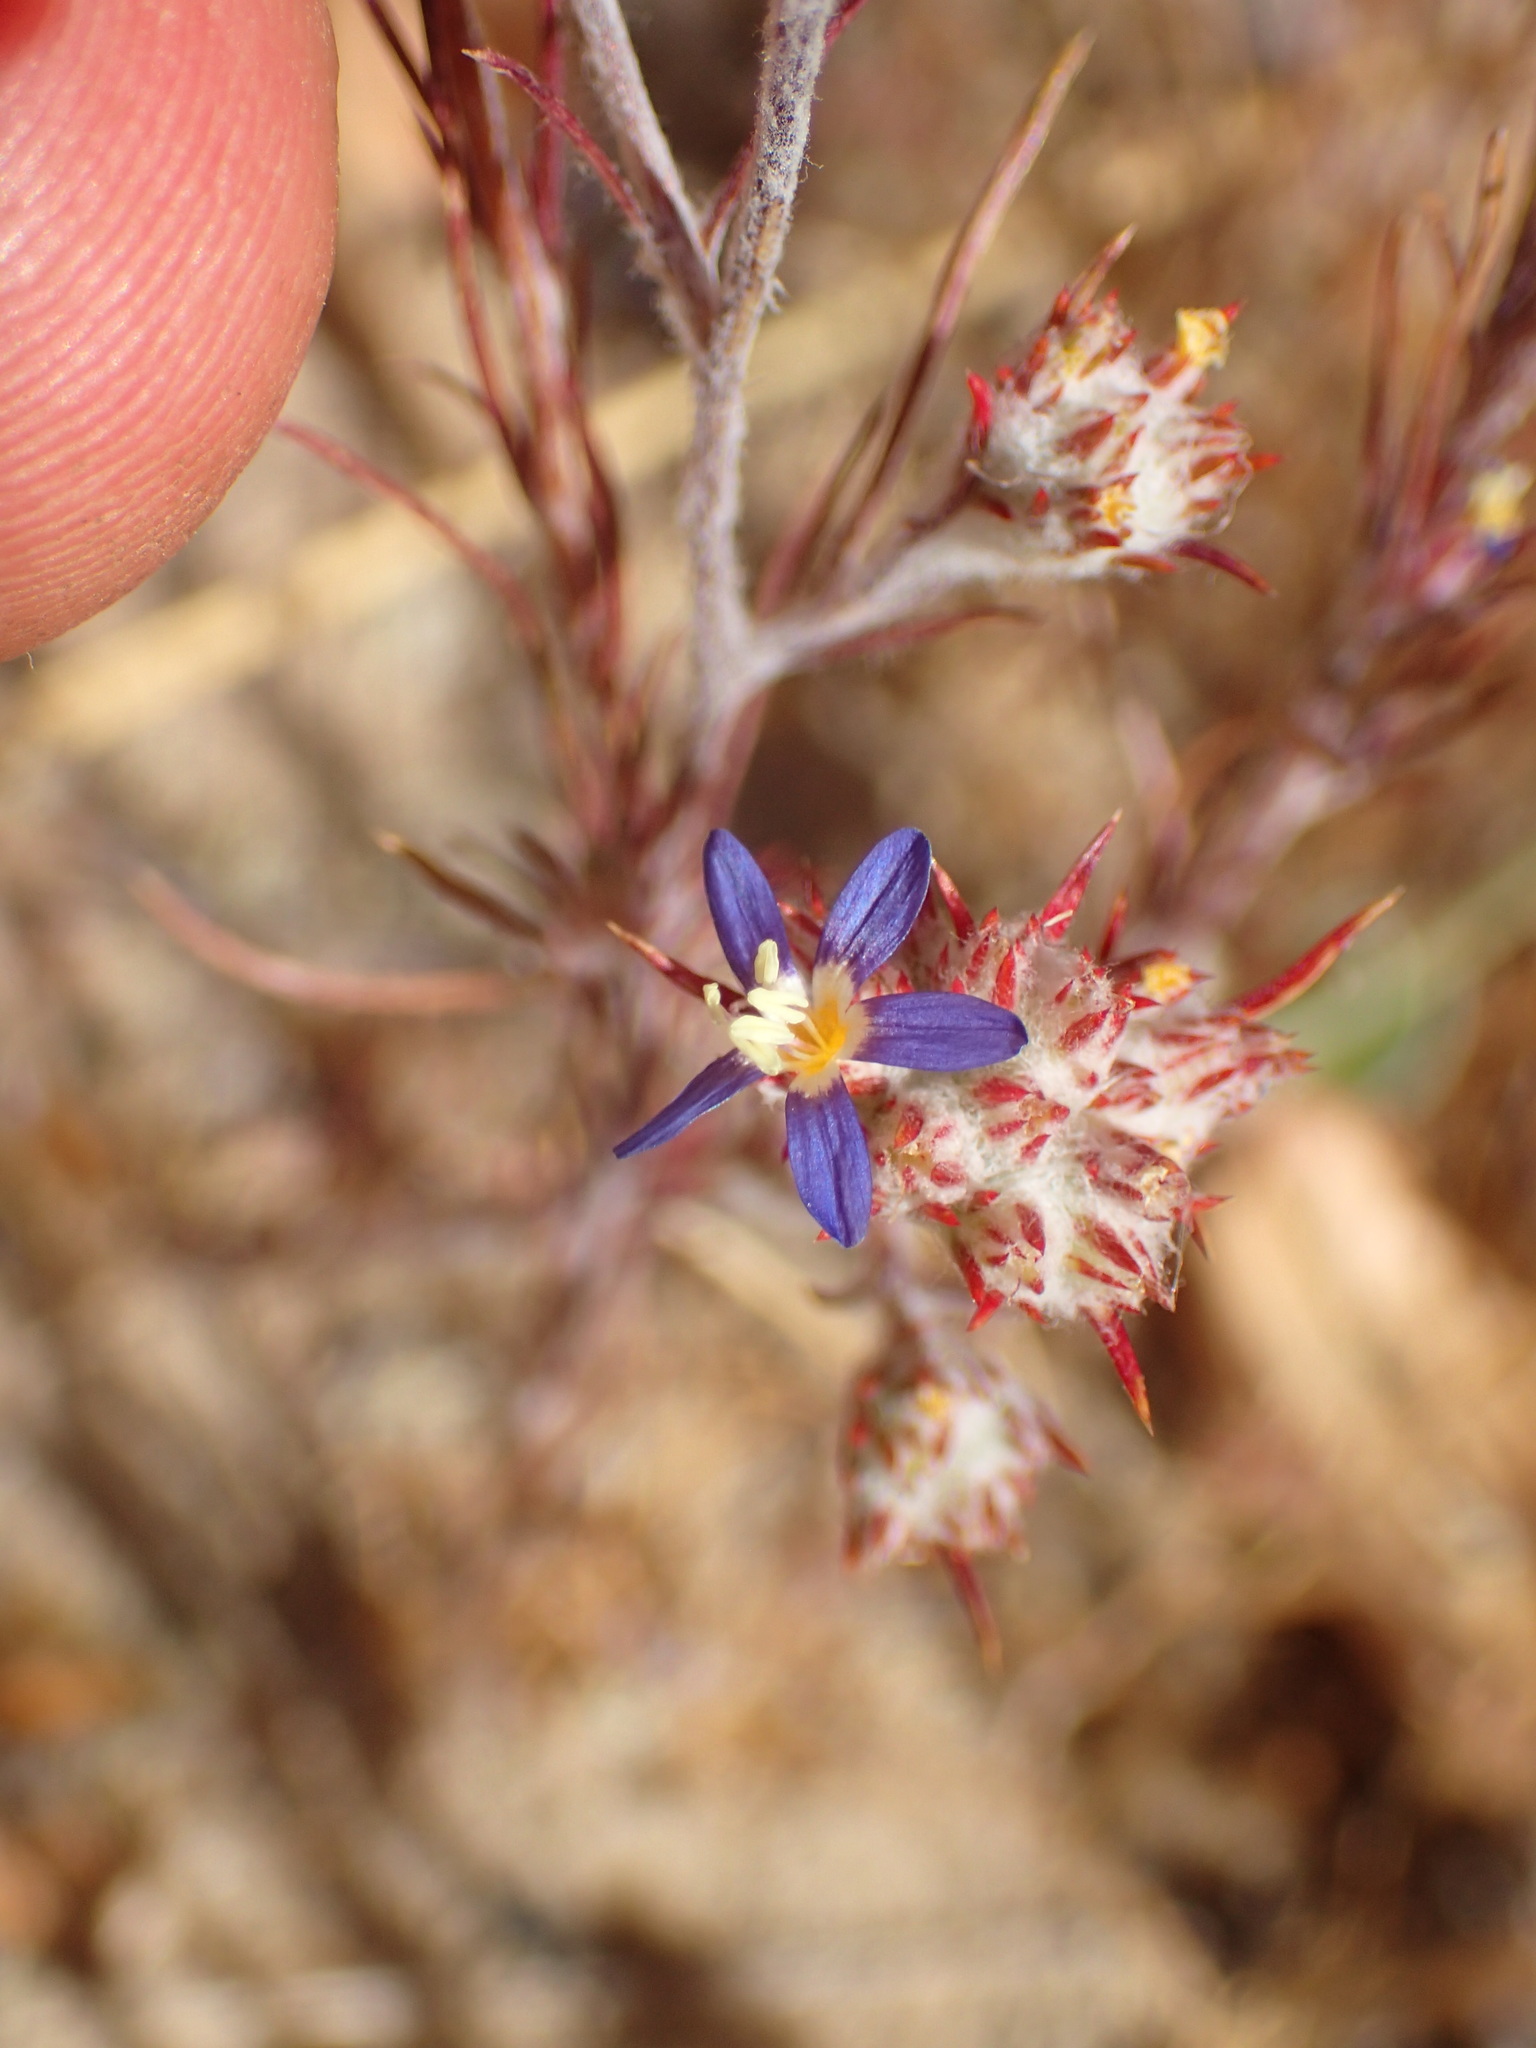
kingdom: Plantae
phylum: Tracheophyta
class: Magnoliopsida
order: Ericales
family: Polemoniaceae
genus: Eriastrum
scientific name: Eriastrum sapphirinum
